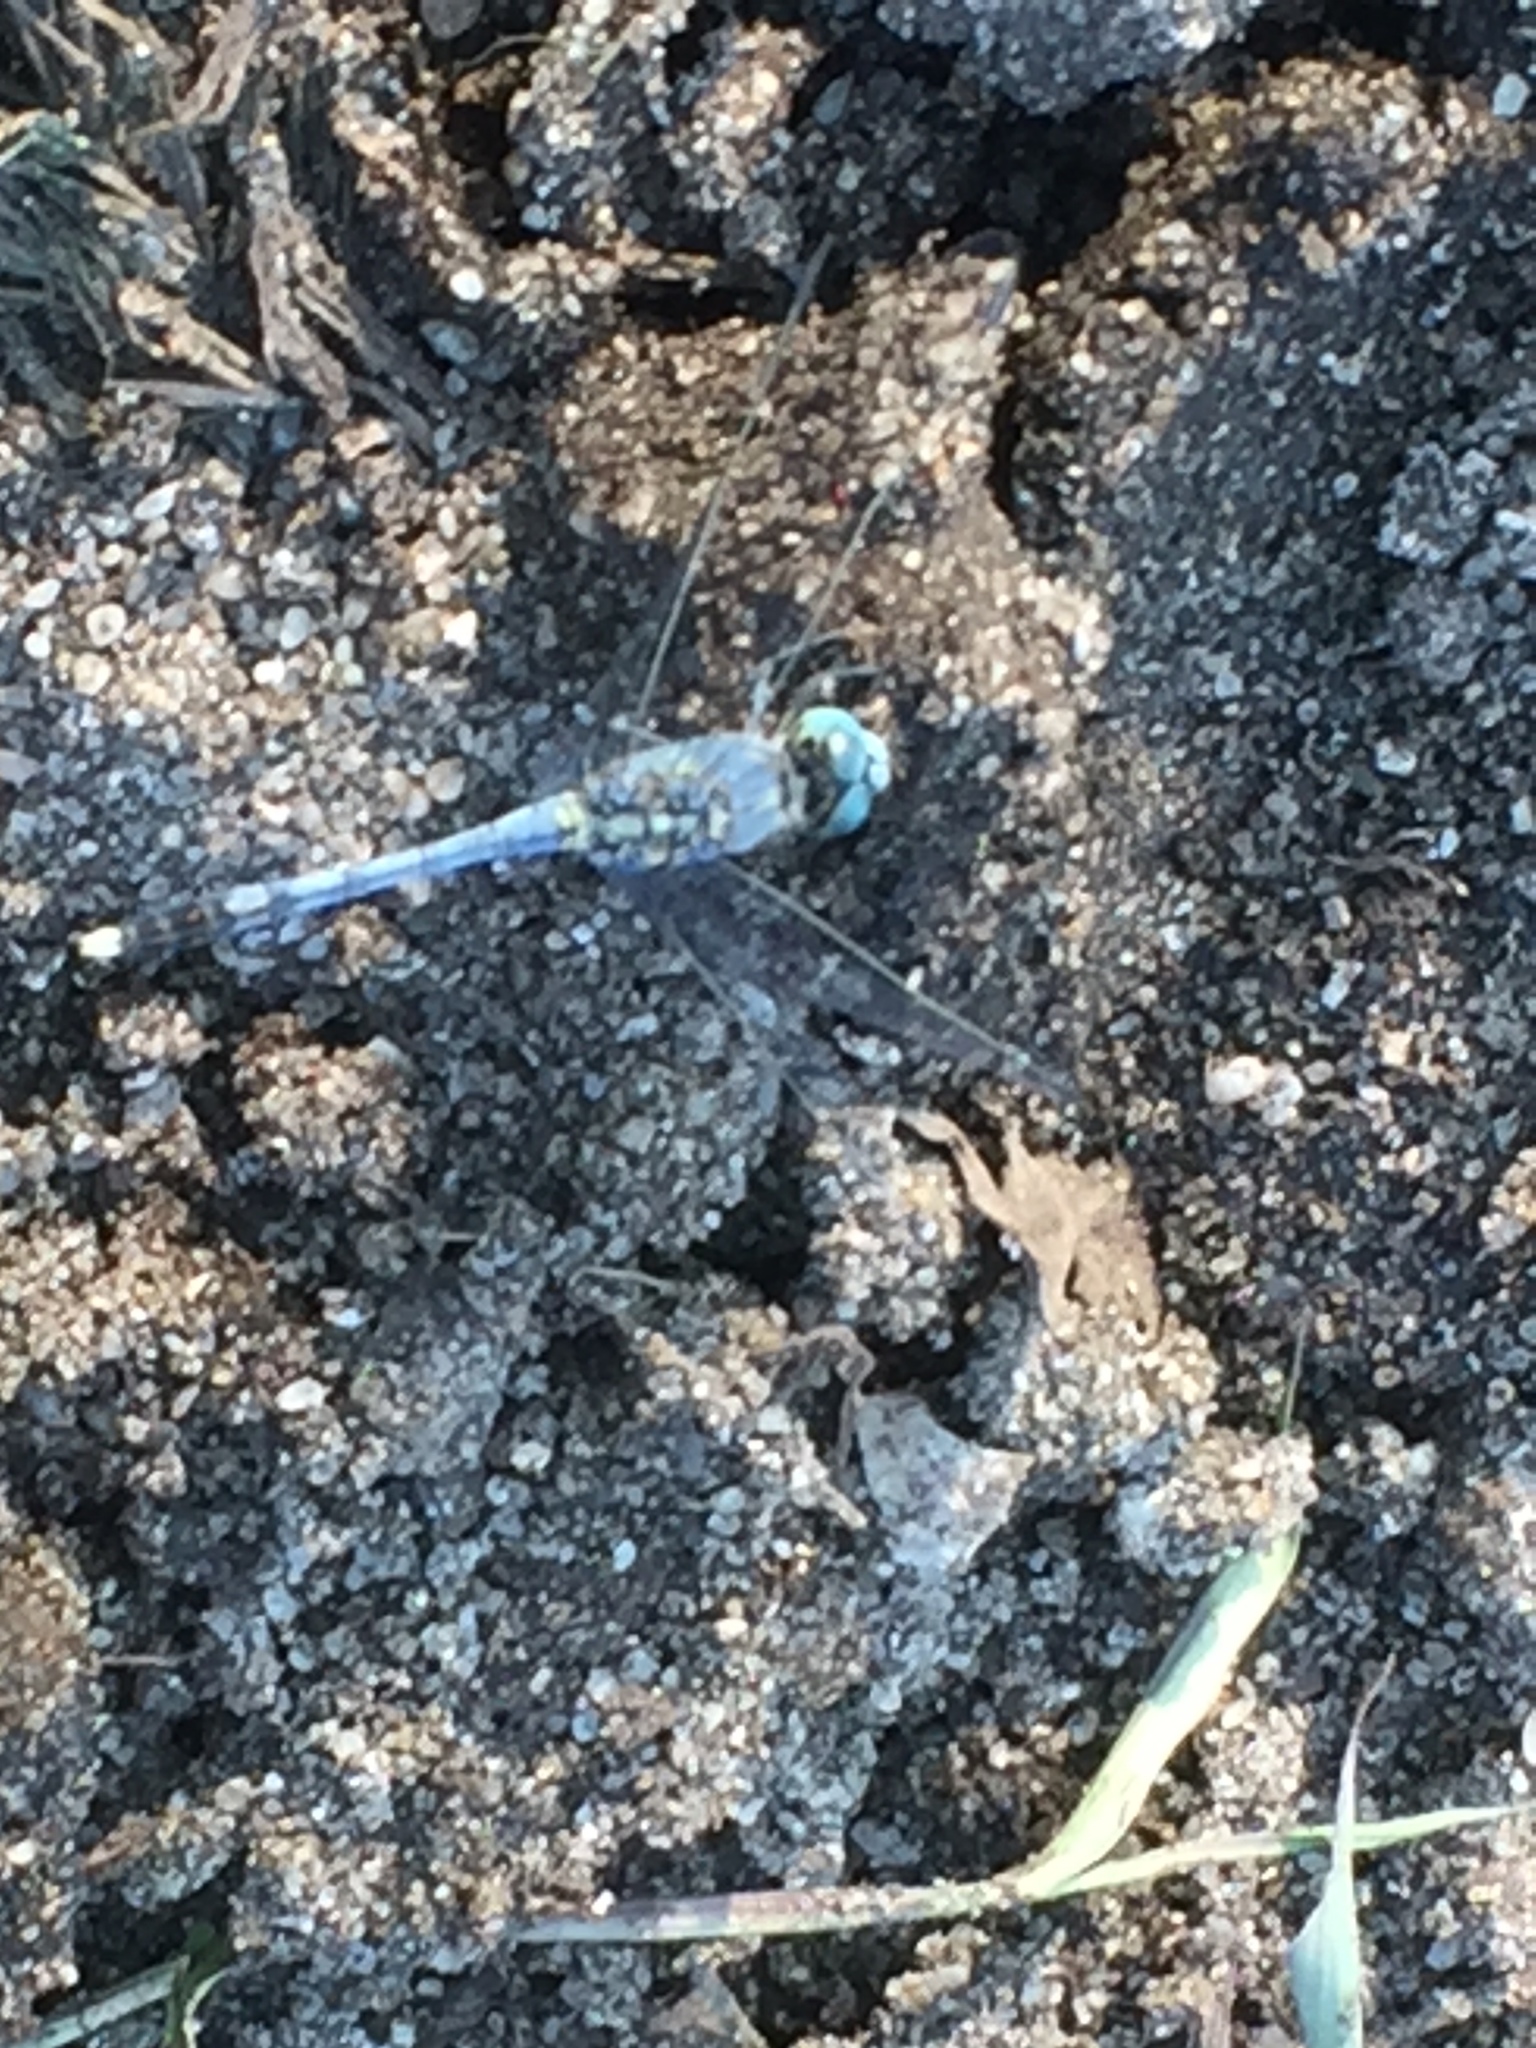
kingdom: Animalia
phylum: Arthropoda
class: Insecta
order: Odonata
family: Libellulidae
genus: Diplacodes
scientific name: Diplacodes trivialis
